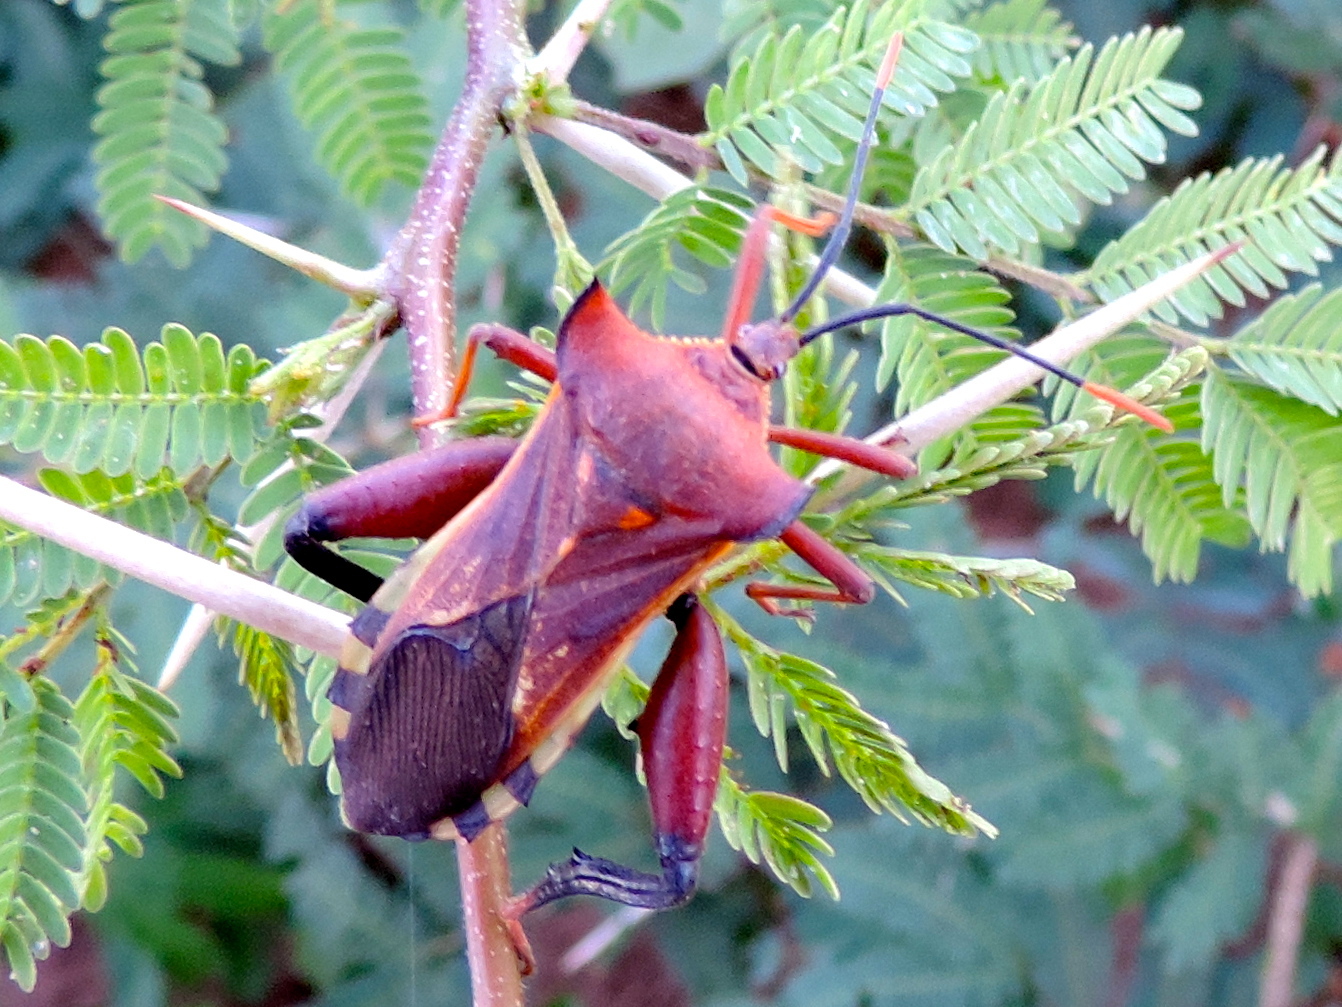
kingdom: Animalia
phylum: Arthropoda
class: Insecta
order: Hemiptera
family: Coreidae
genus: Mozena
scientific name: Mozena lunata
